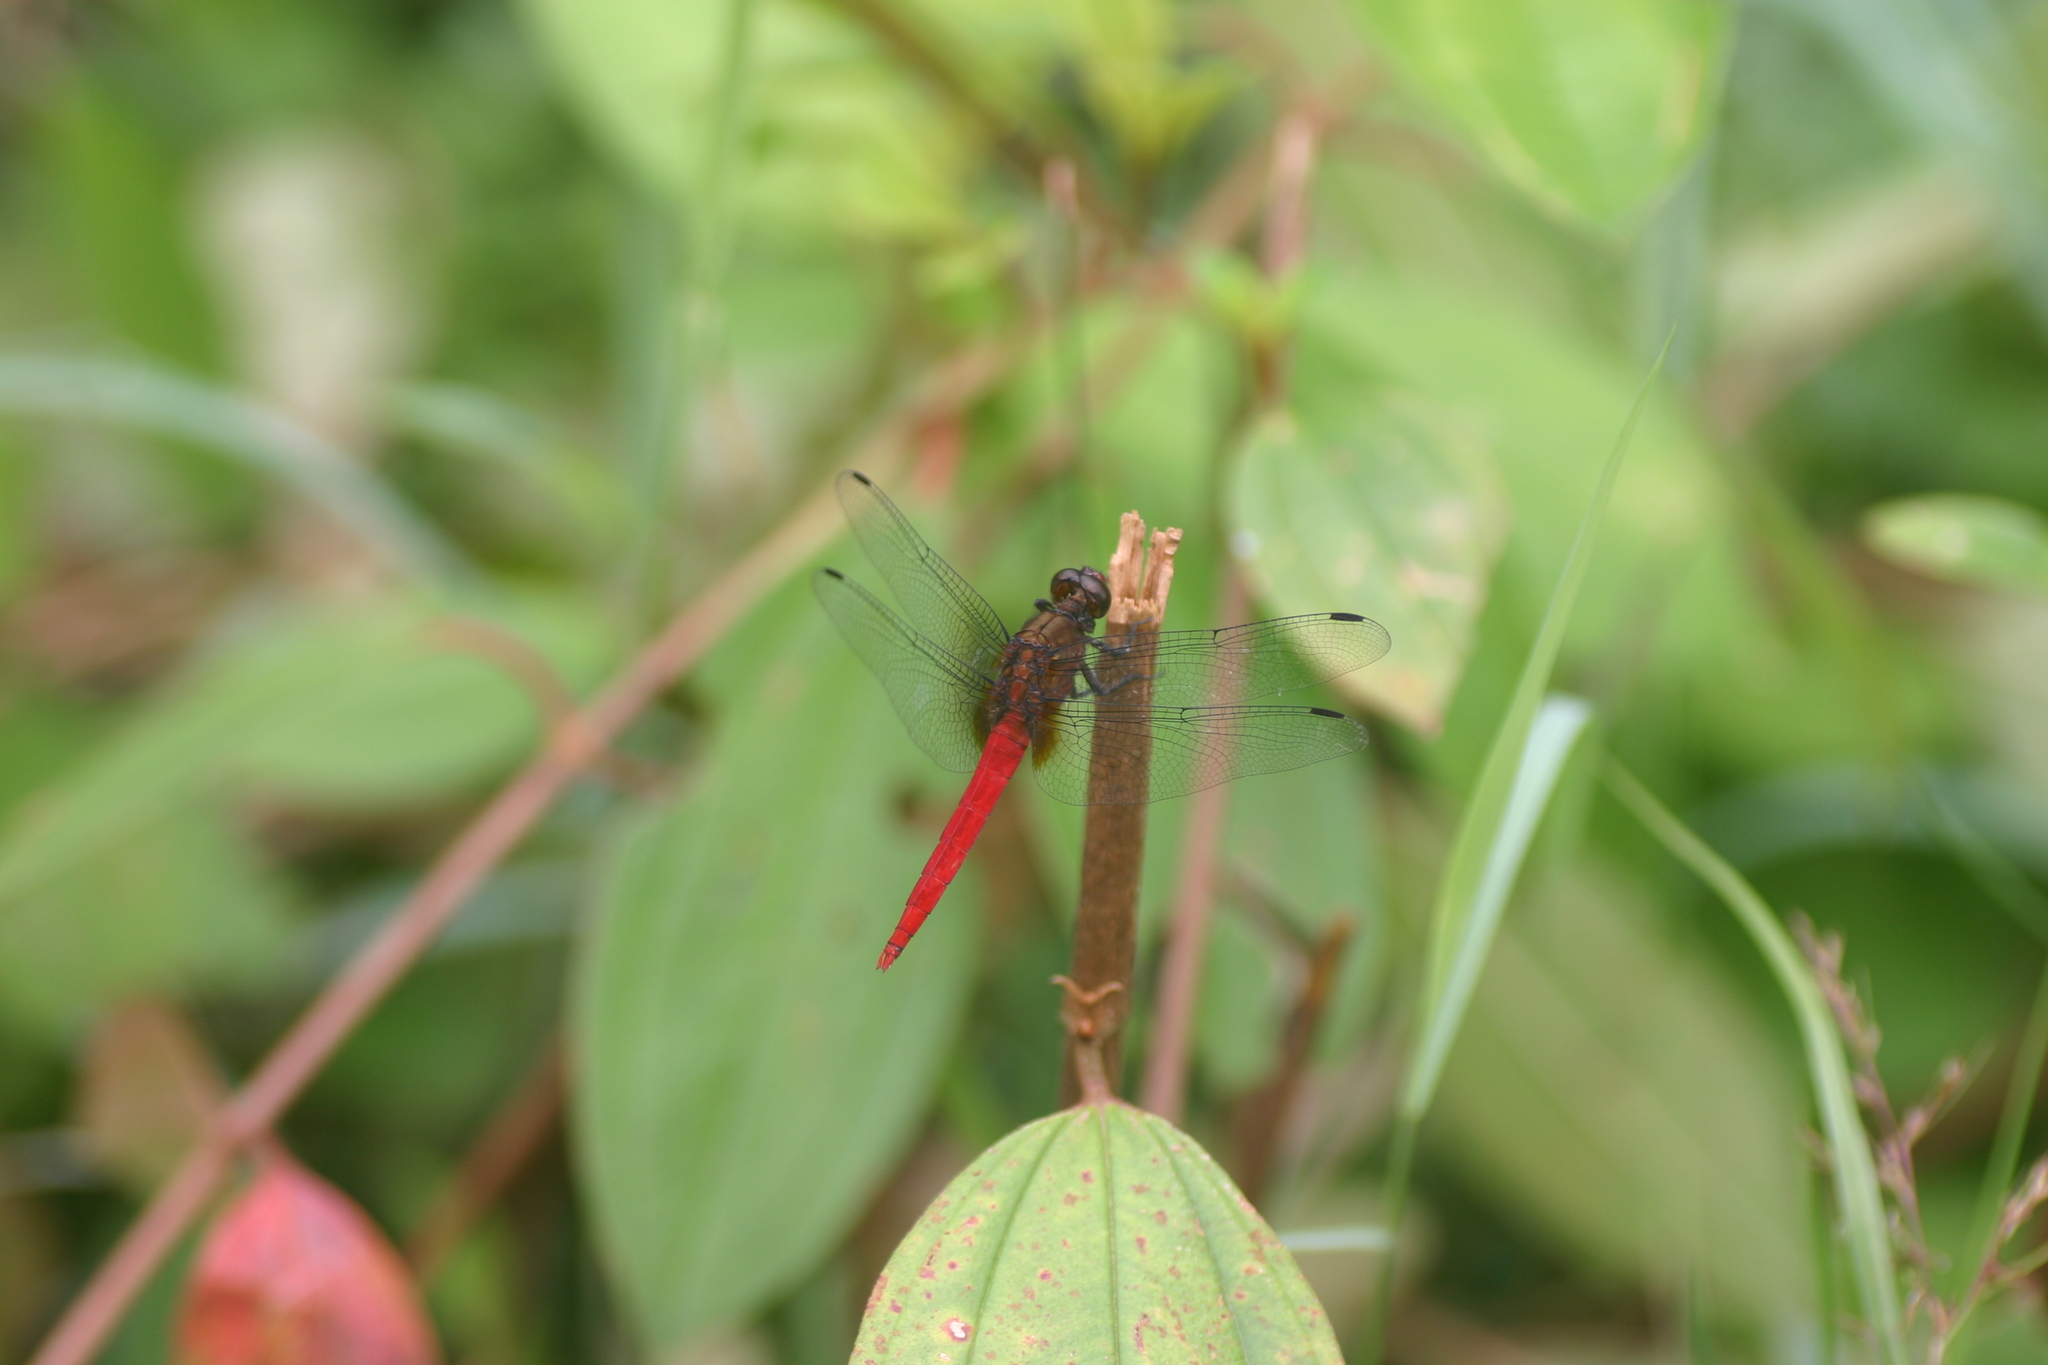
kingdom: Animalia
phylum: Arthropoda
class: Insecta
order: Odonata
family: Libellulidae
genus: Orthetrum
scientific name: Orthetrum chrysis
